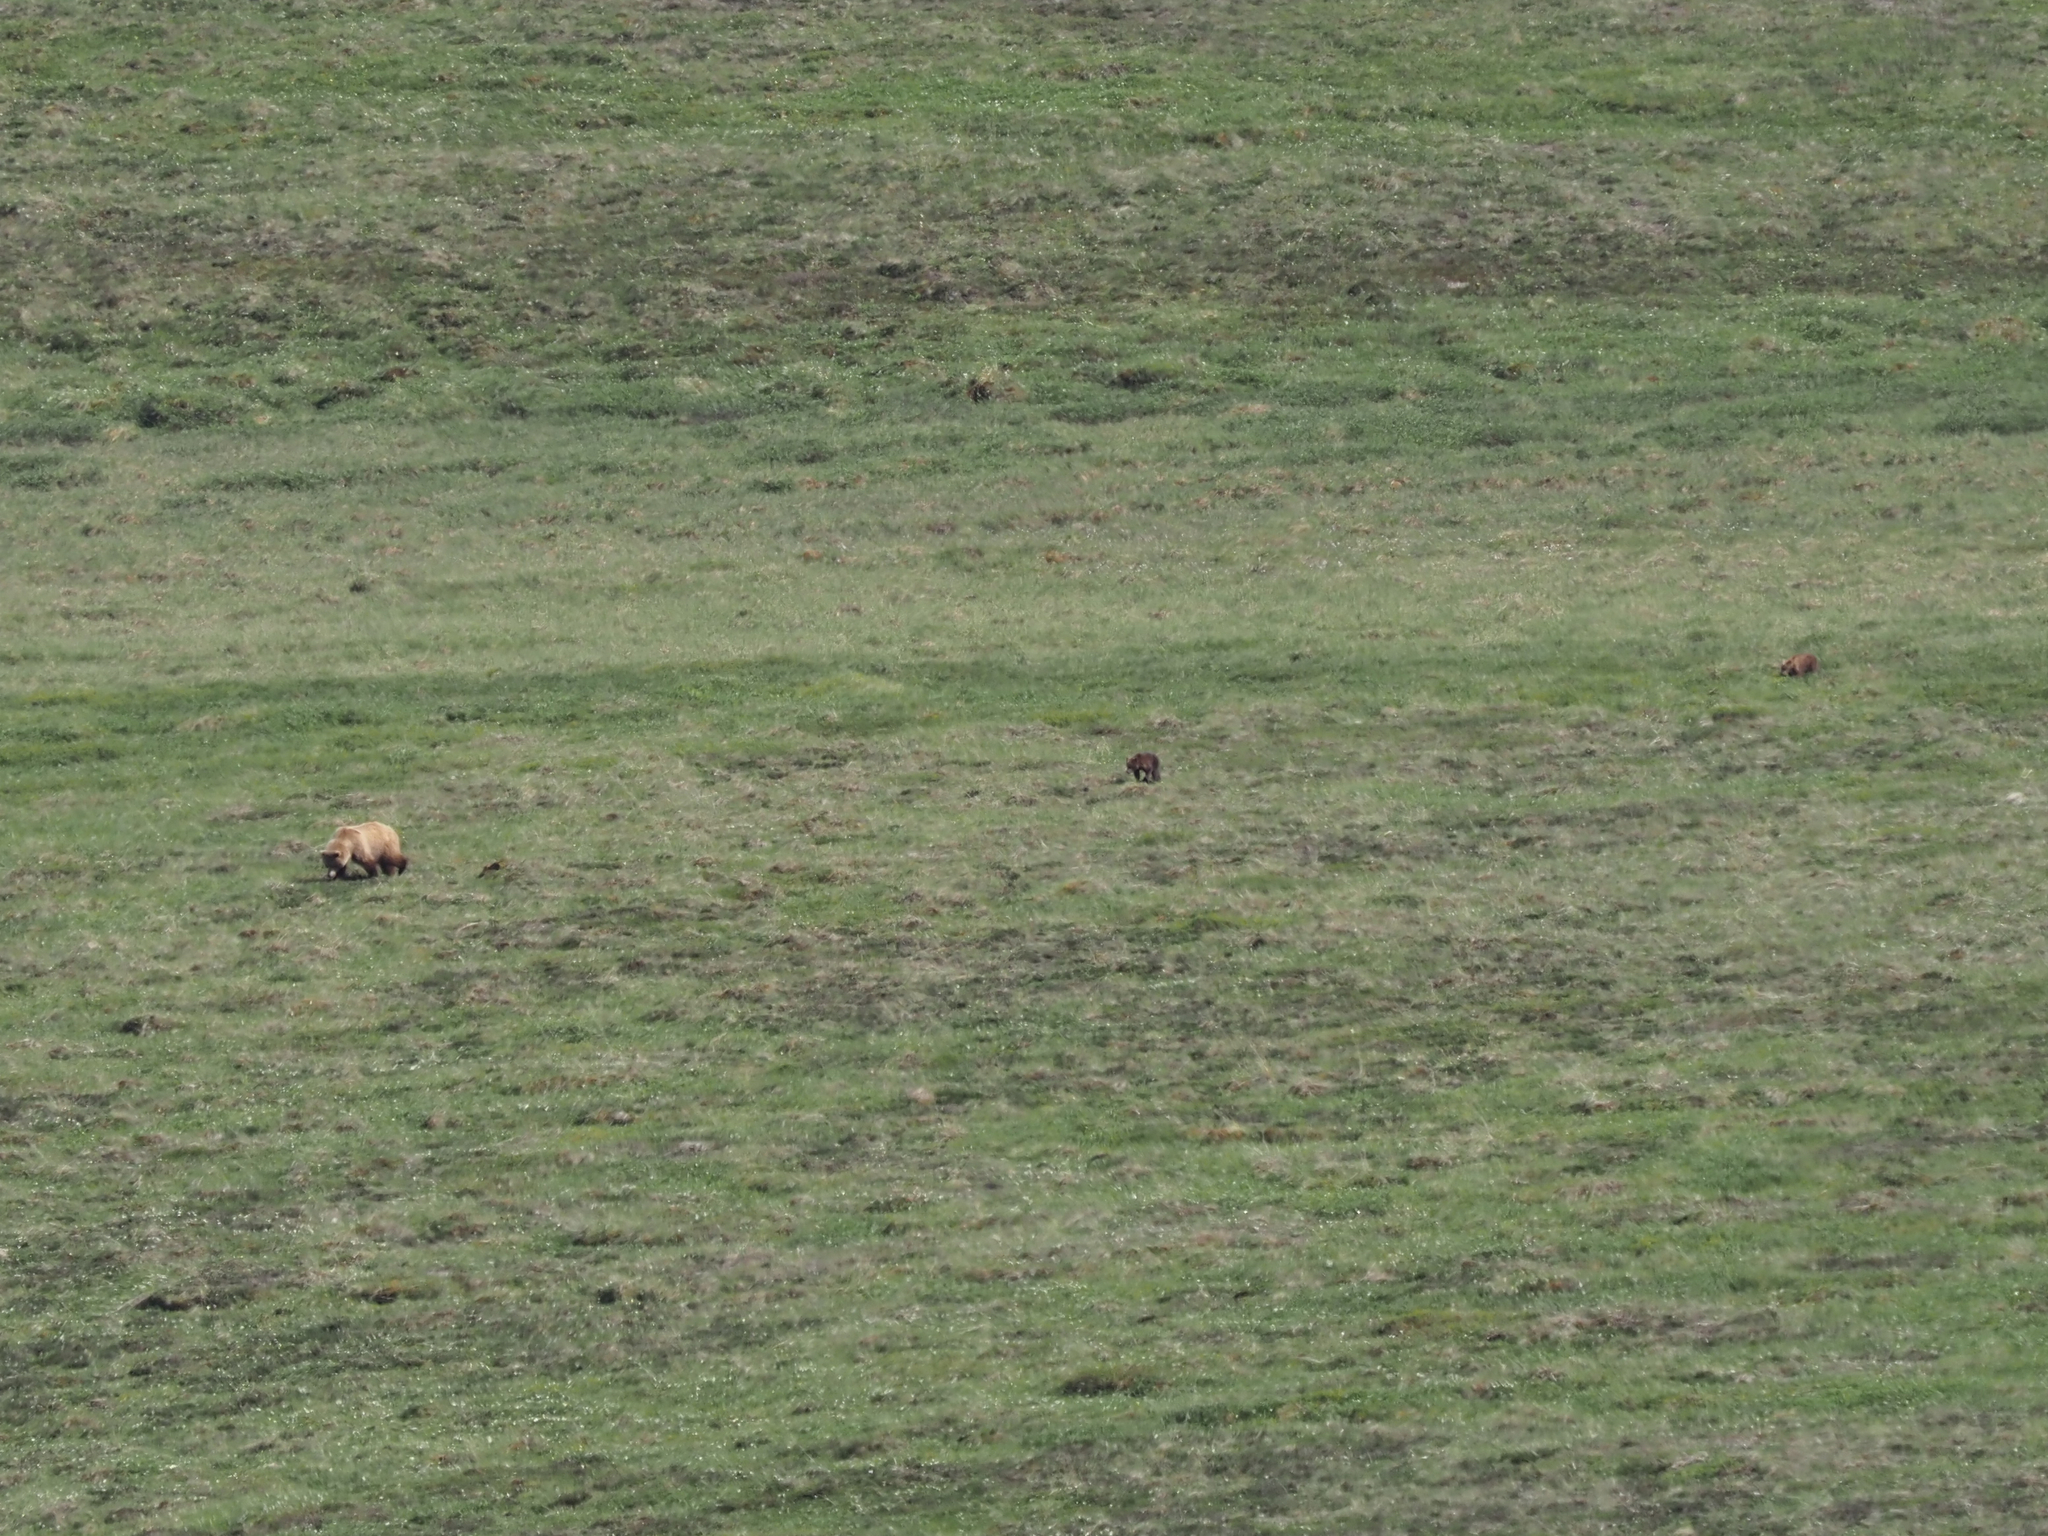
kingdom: Animalia
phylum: Chordata
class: Mammalia
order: Carnivora
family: Ursidae
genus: Ursus
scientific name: Ursus arctos
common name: Brown bear
